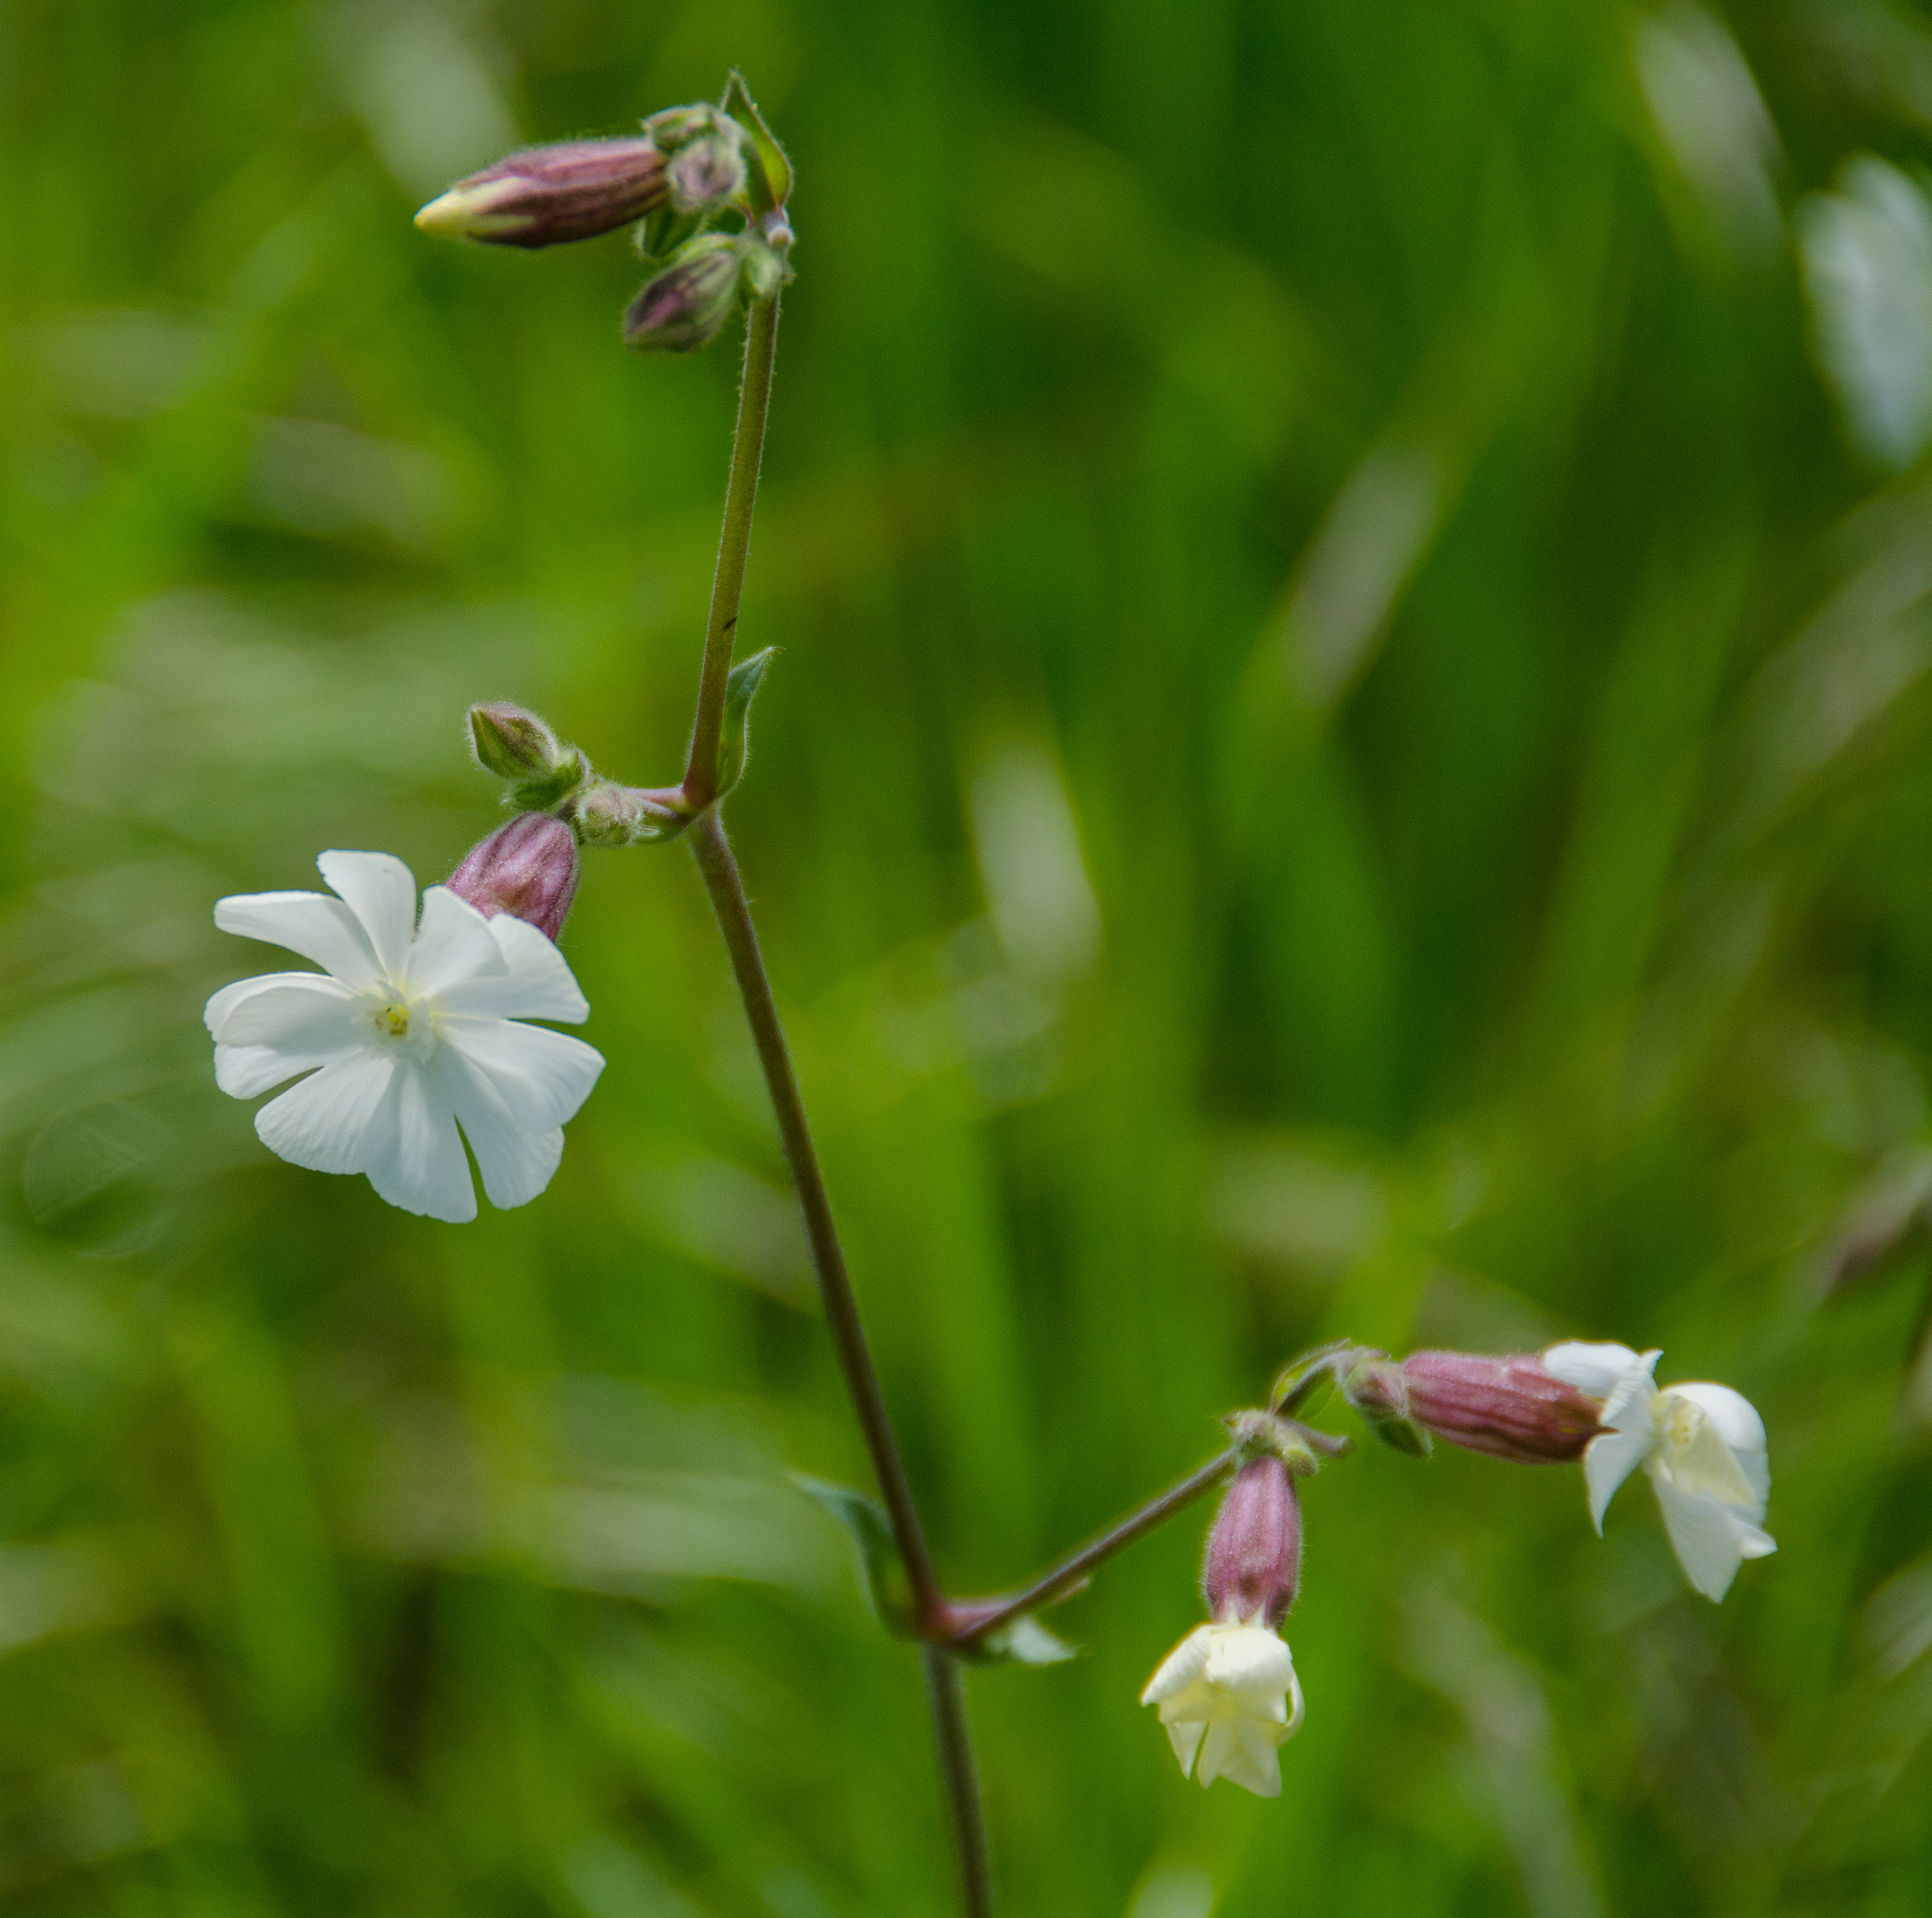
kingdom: Plantae
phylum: Tracheophyta
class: Magnoliopsida
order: Caryophyllales
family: Caryophyllaceae
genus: Silene
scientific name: Silene latifolia
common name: White campion
